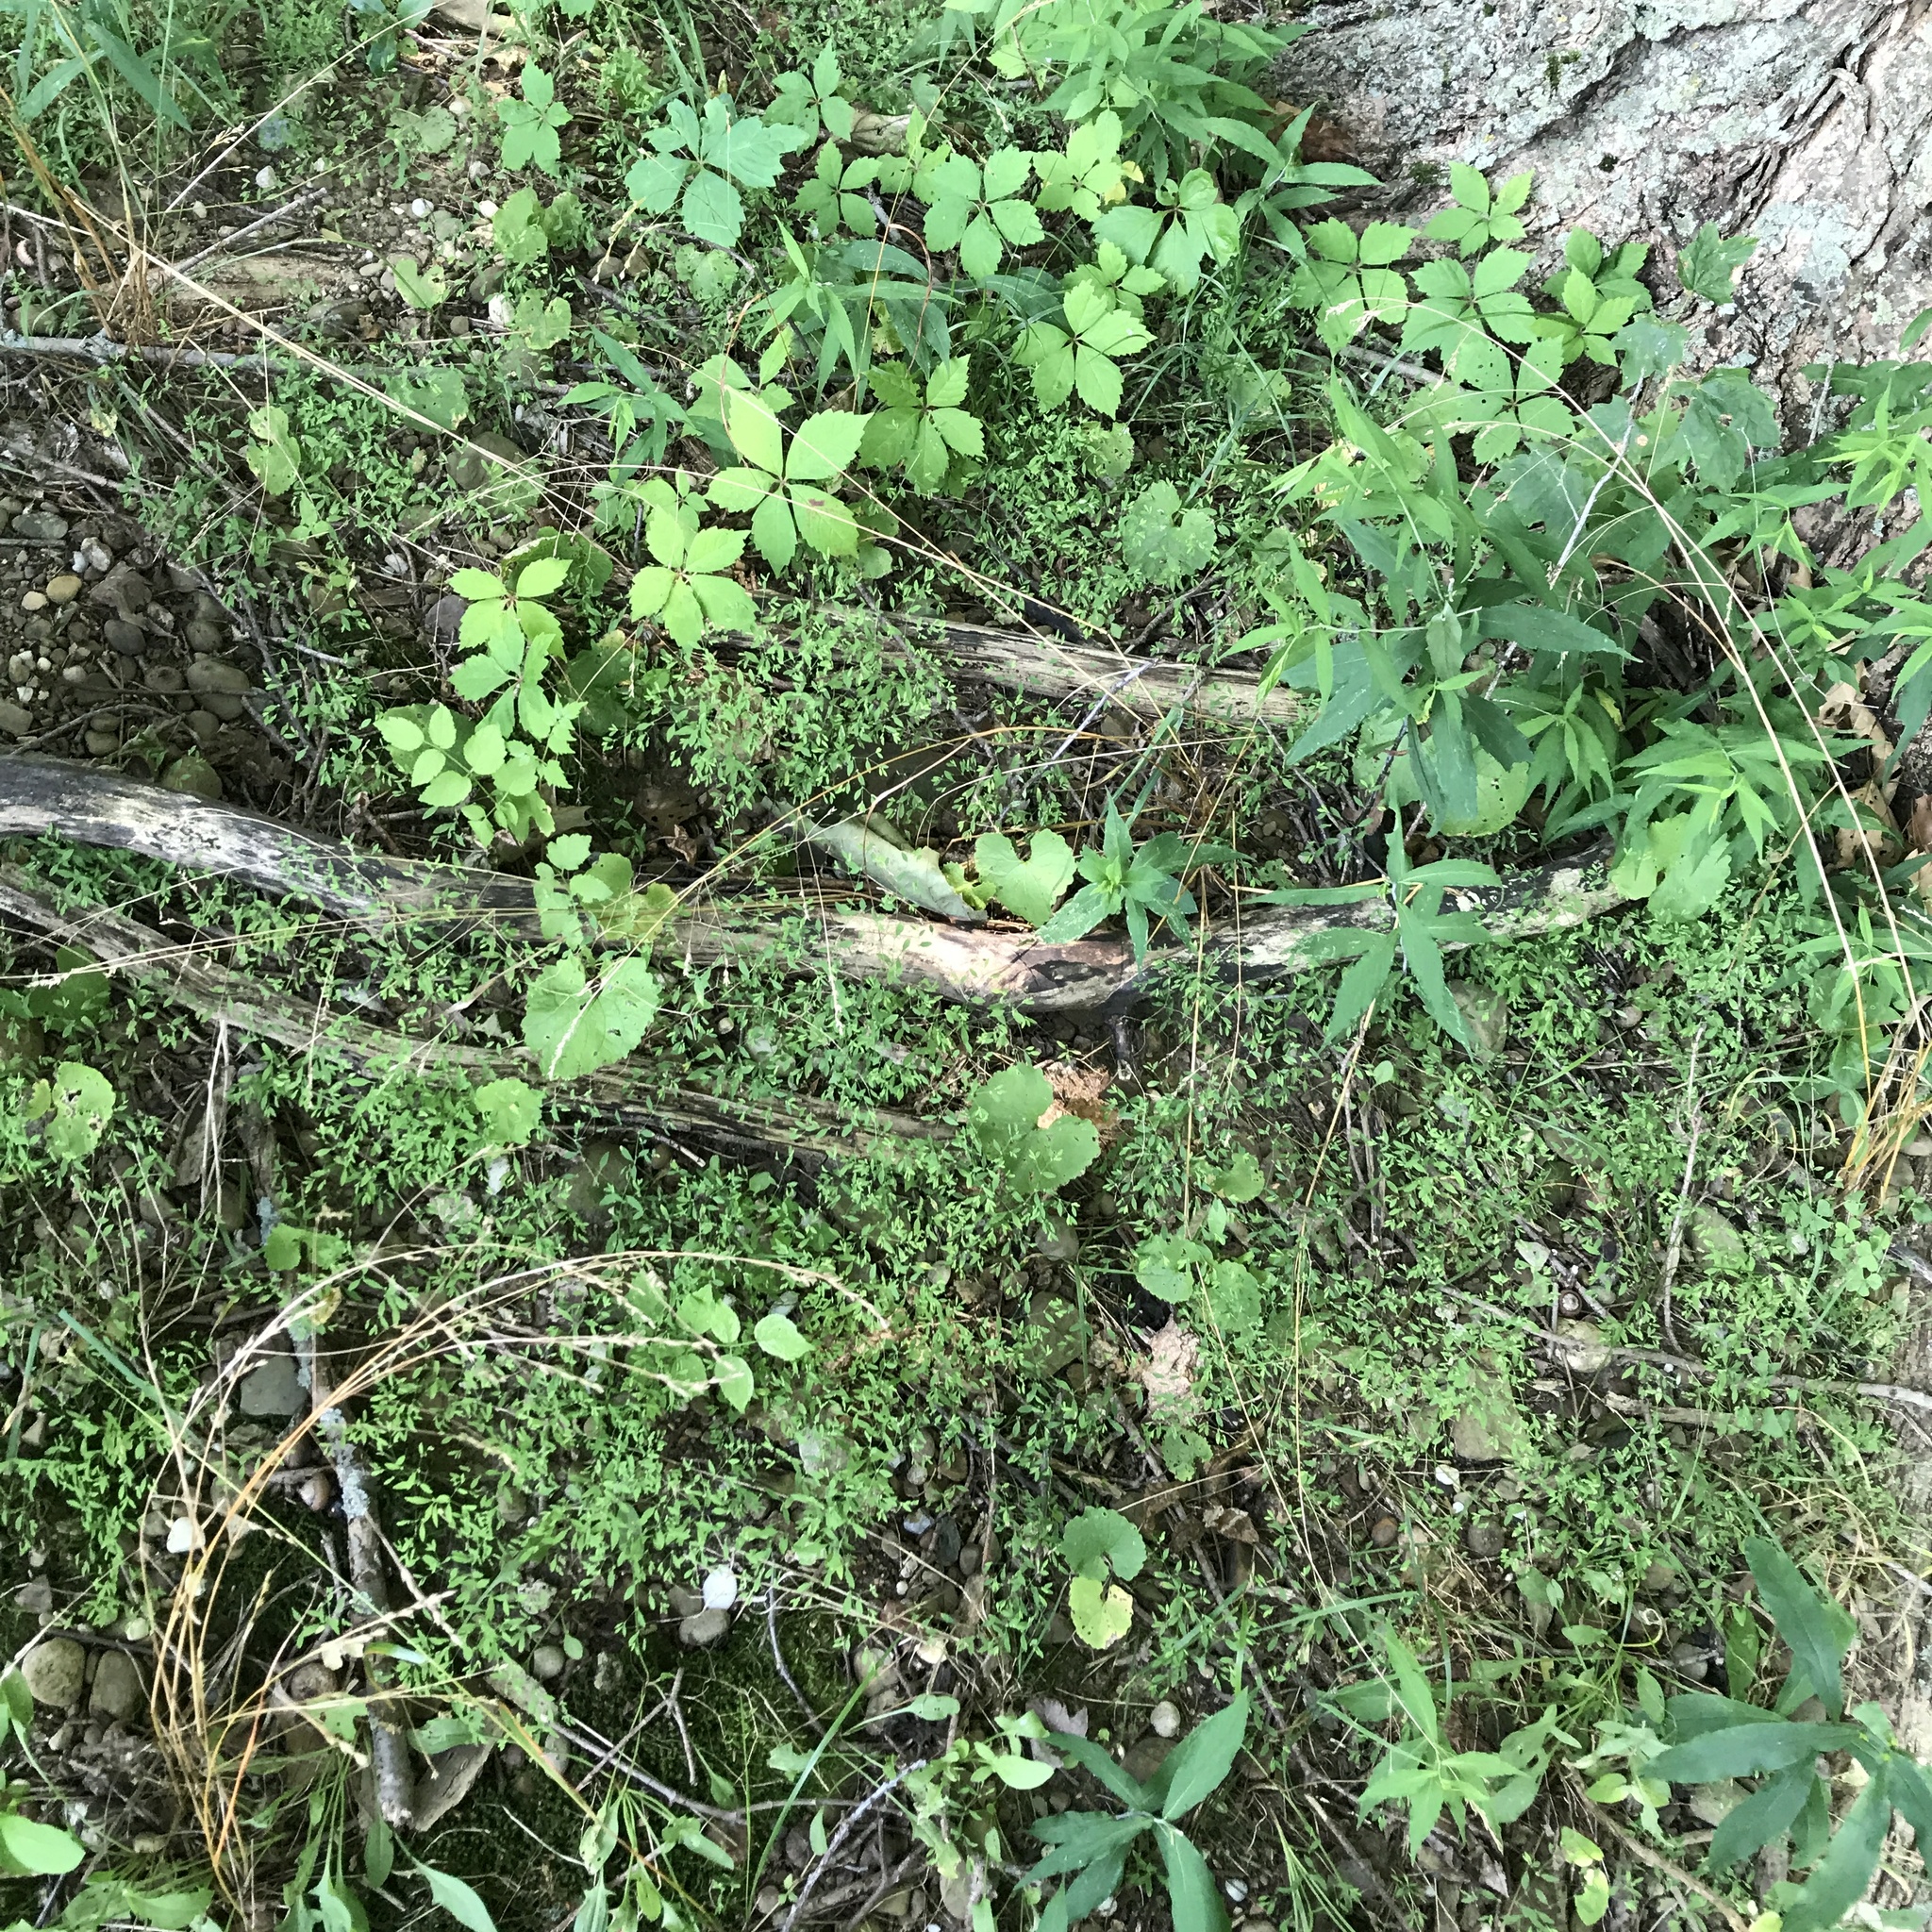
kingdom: Plantae
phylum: Tracheophyta
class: Magnoliopsida
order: Caryophyllales
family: Caryophyllaceae
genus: Paronychia
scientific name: Paronychia canadensis
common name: Canada forked nailwort
